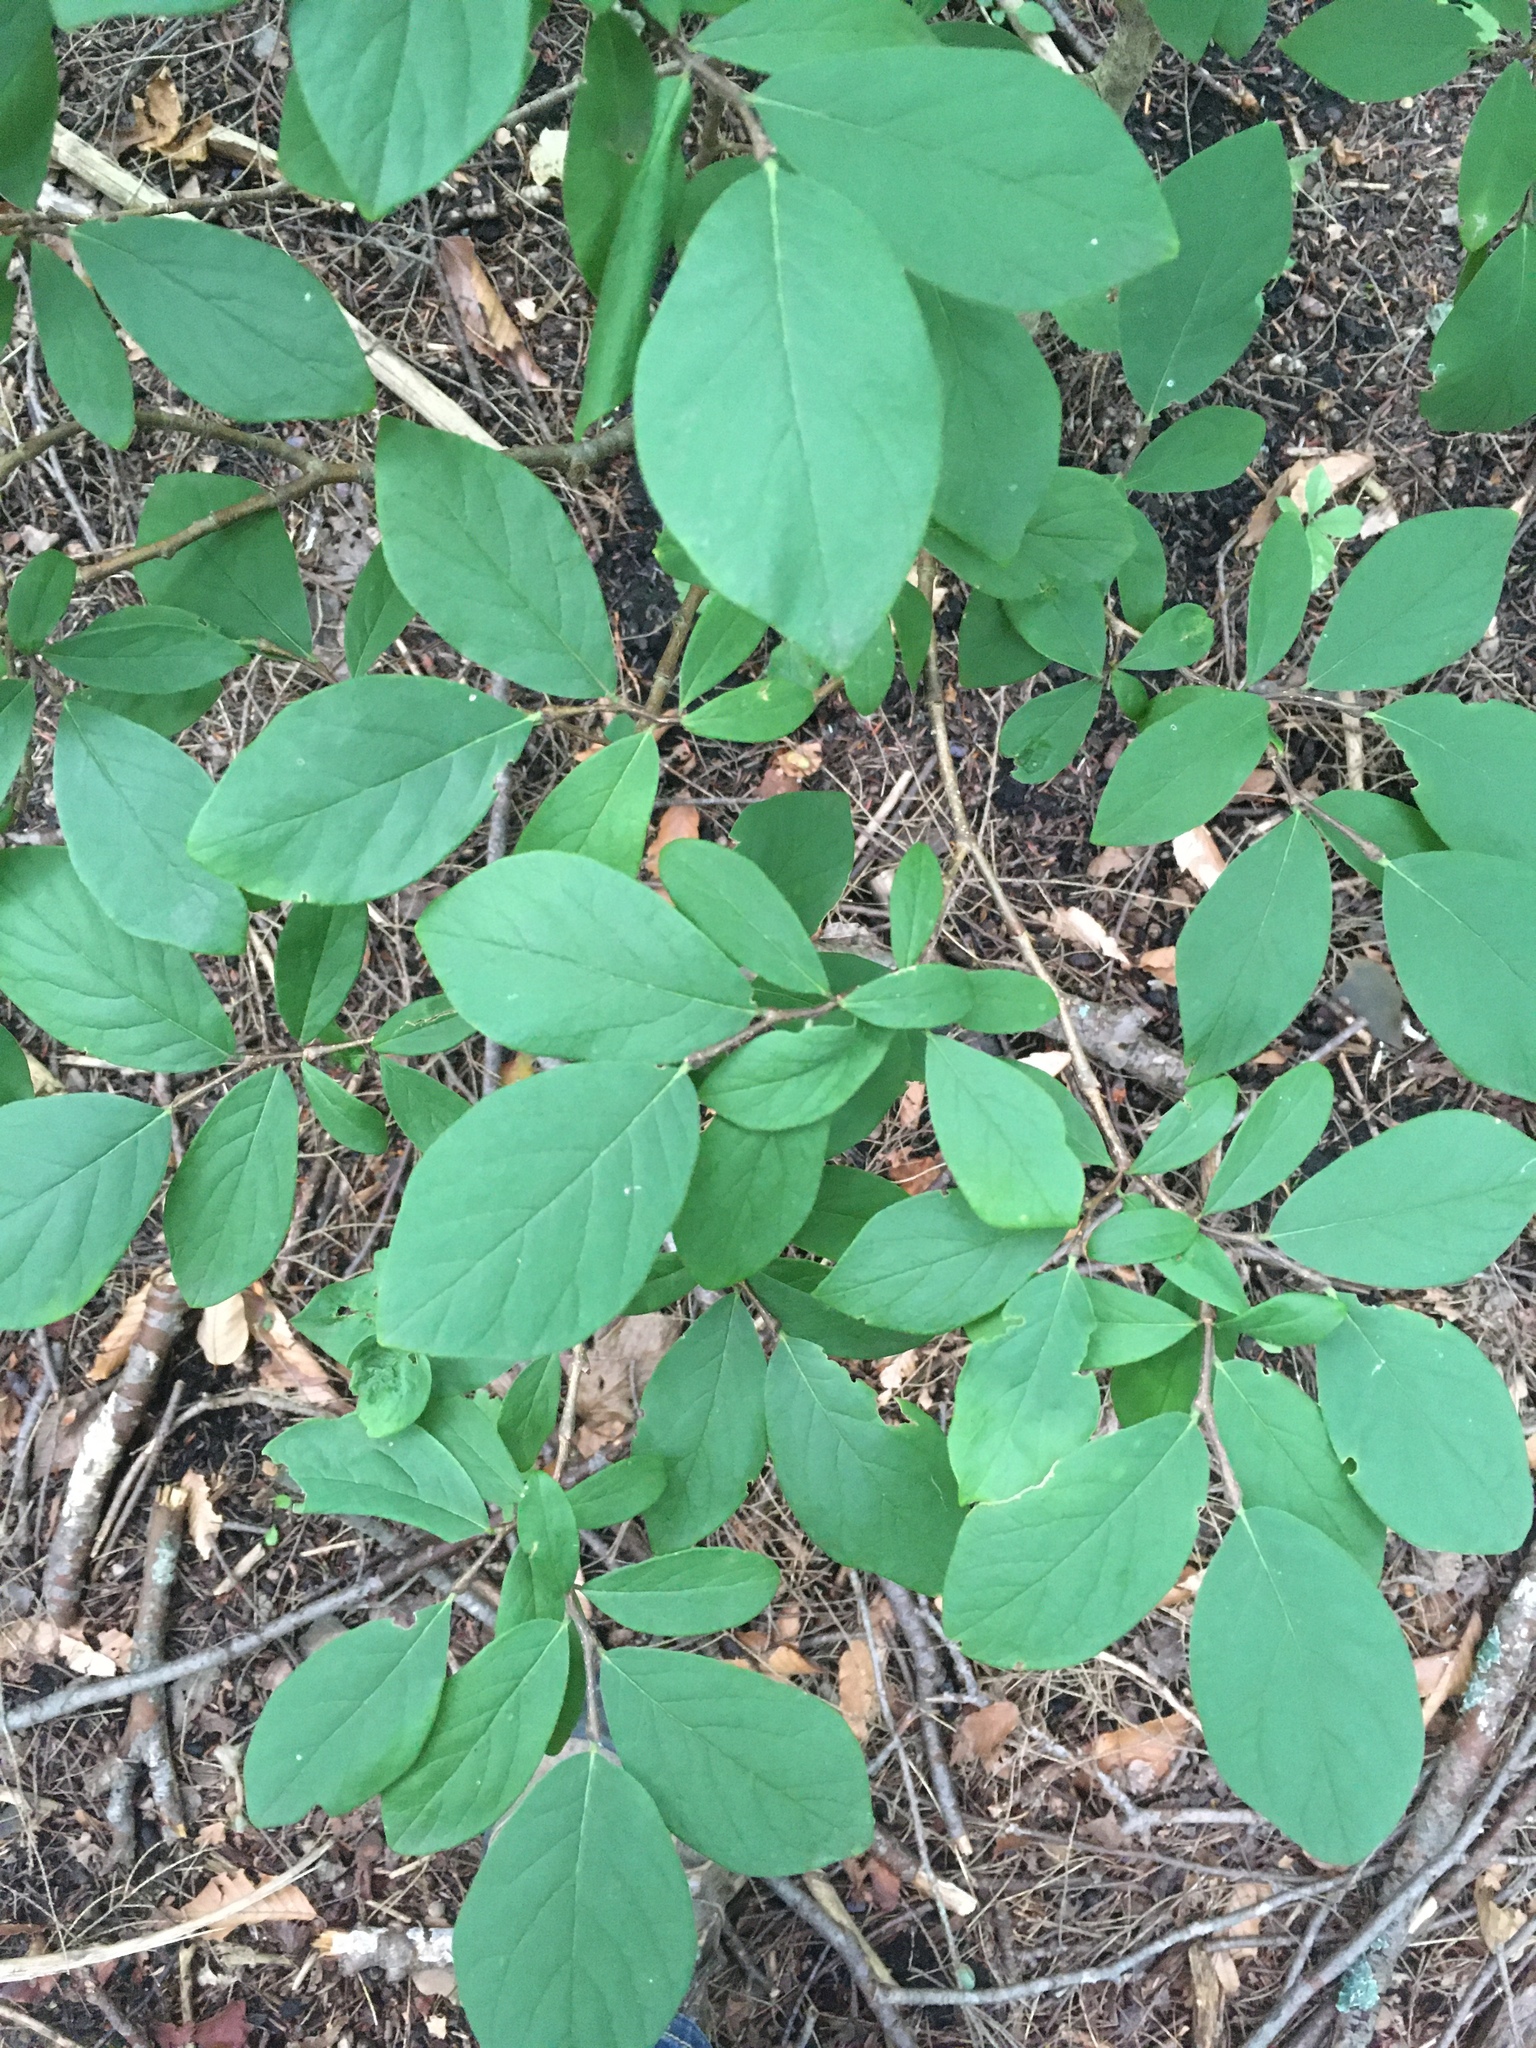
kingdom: Plantae
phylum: Tracheophyta
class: Magnoliopsida
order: Malvales
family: Thymelaeaceae
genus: Dirca
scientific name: Dirca palustris
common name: Leatherwood
